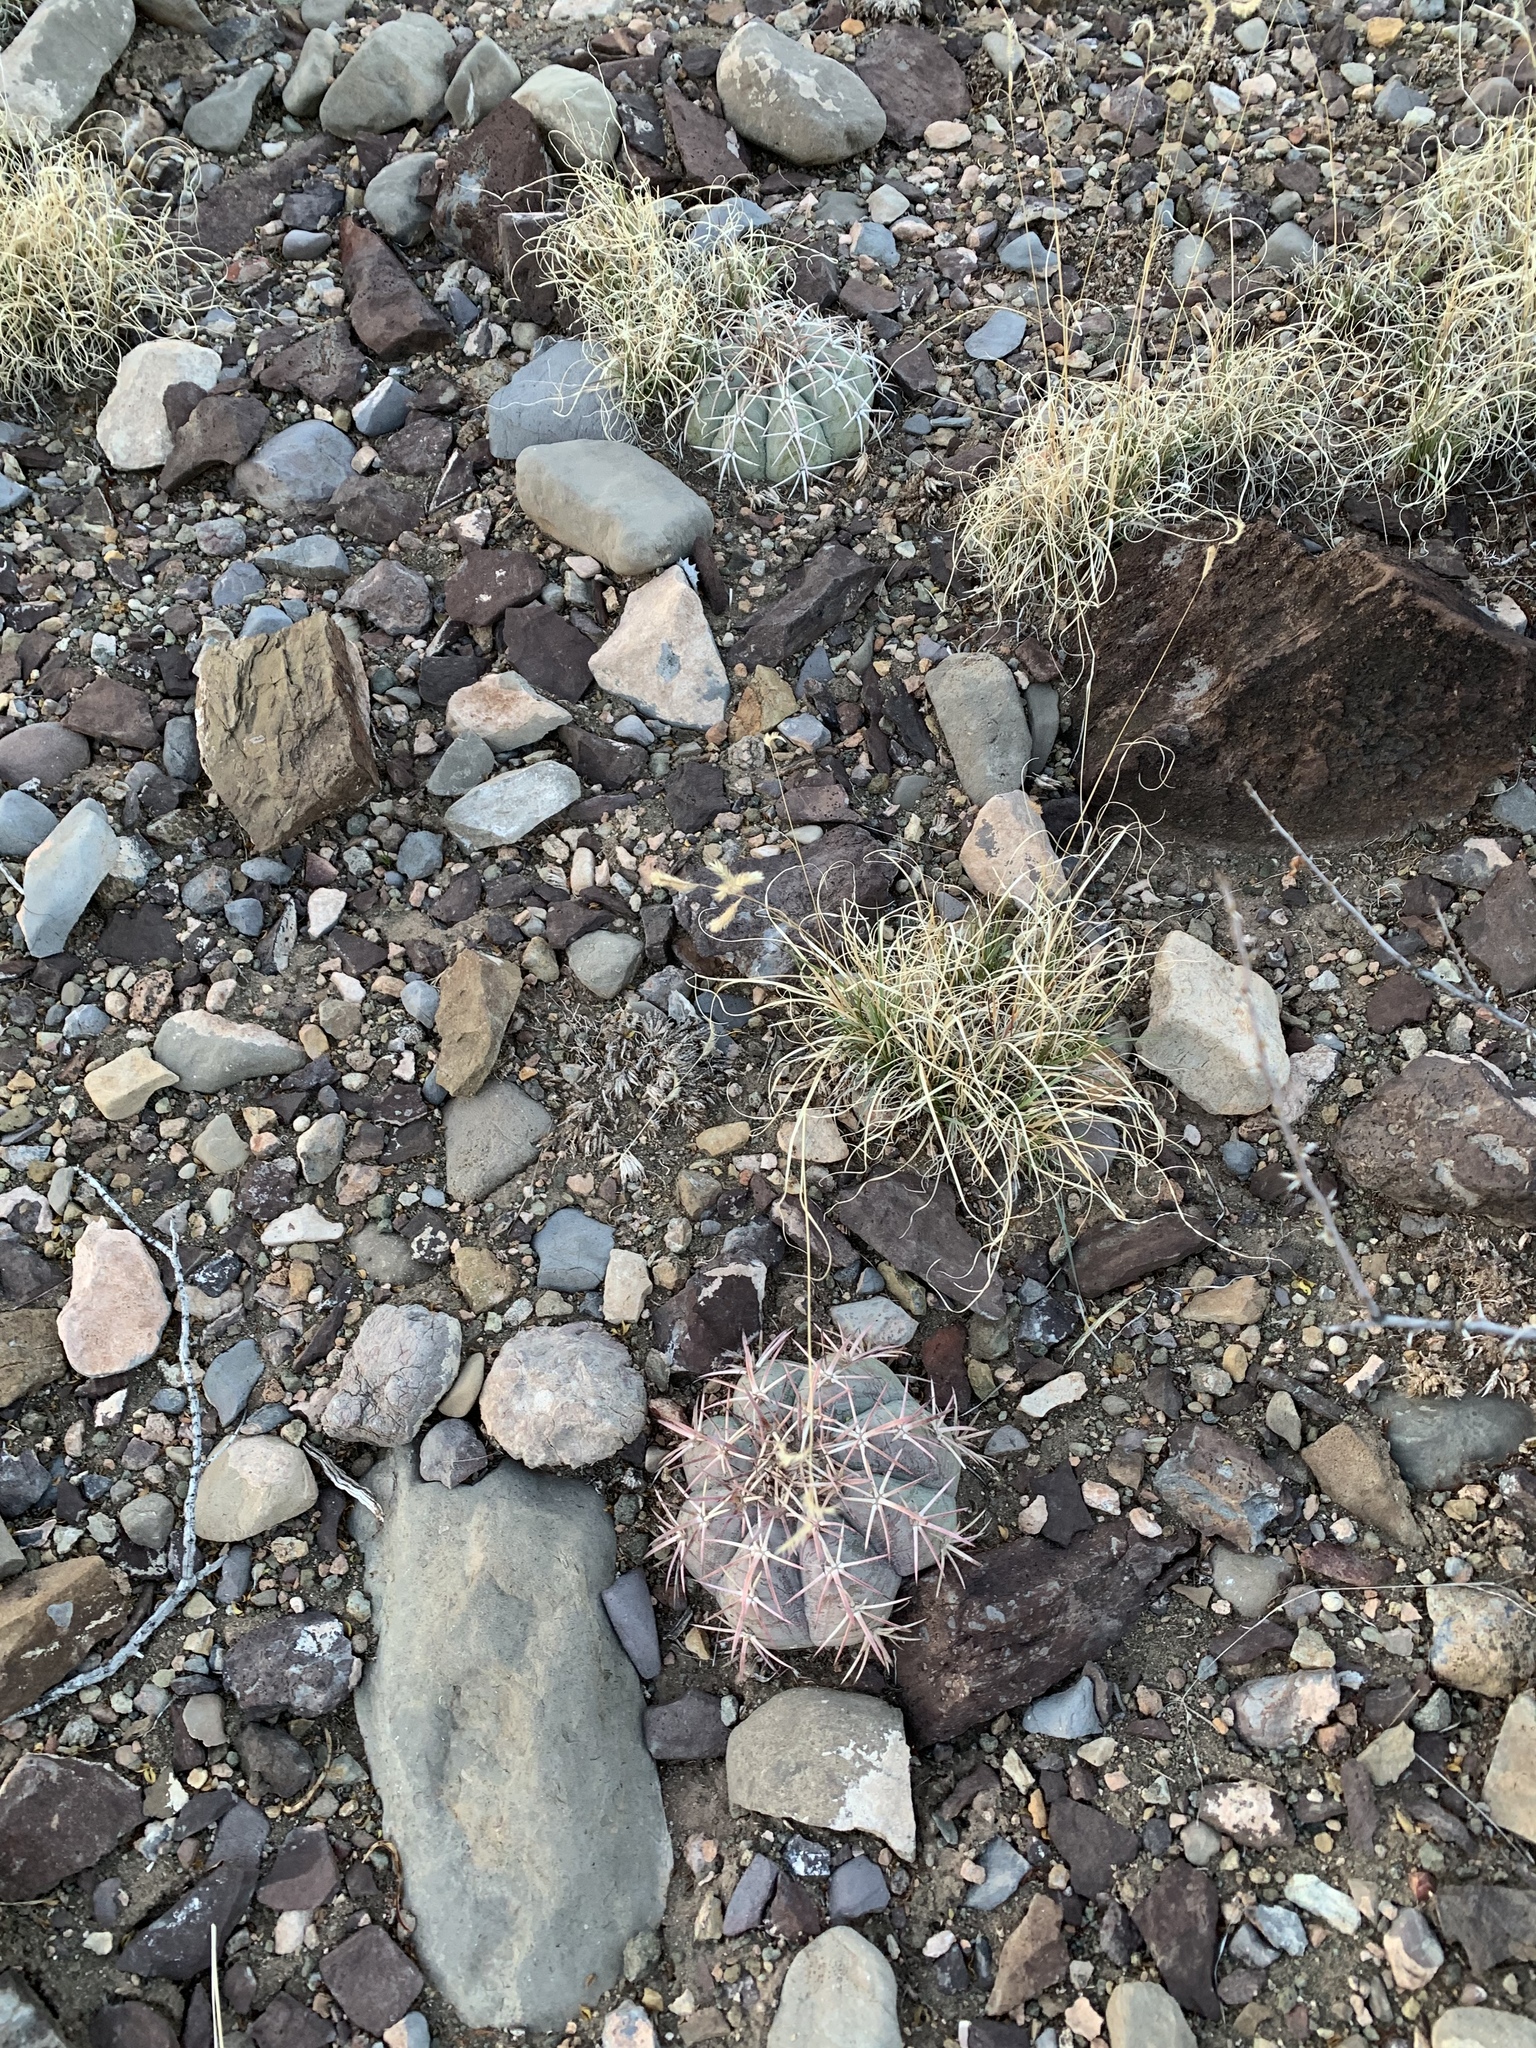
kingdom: Plantae
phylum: Tracheophyta
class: Magnoliopsida
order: Caryophyllales
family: Cactaceae
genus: Echinocactus
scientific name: Echinocactus horizonthalonius
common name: Devilshead
